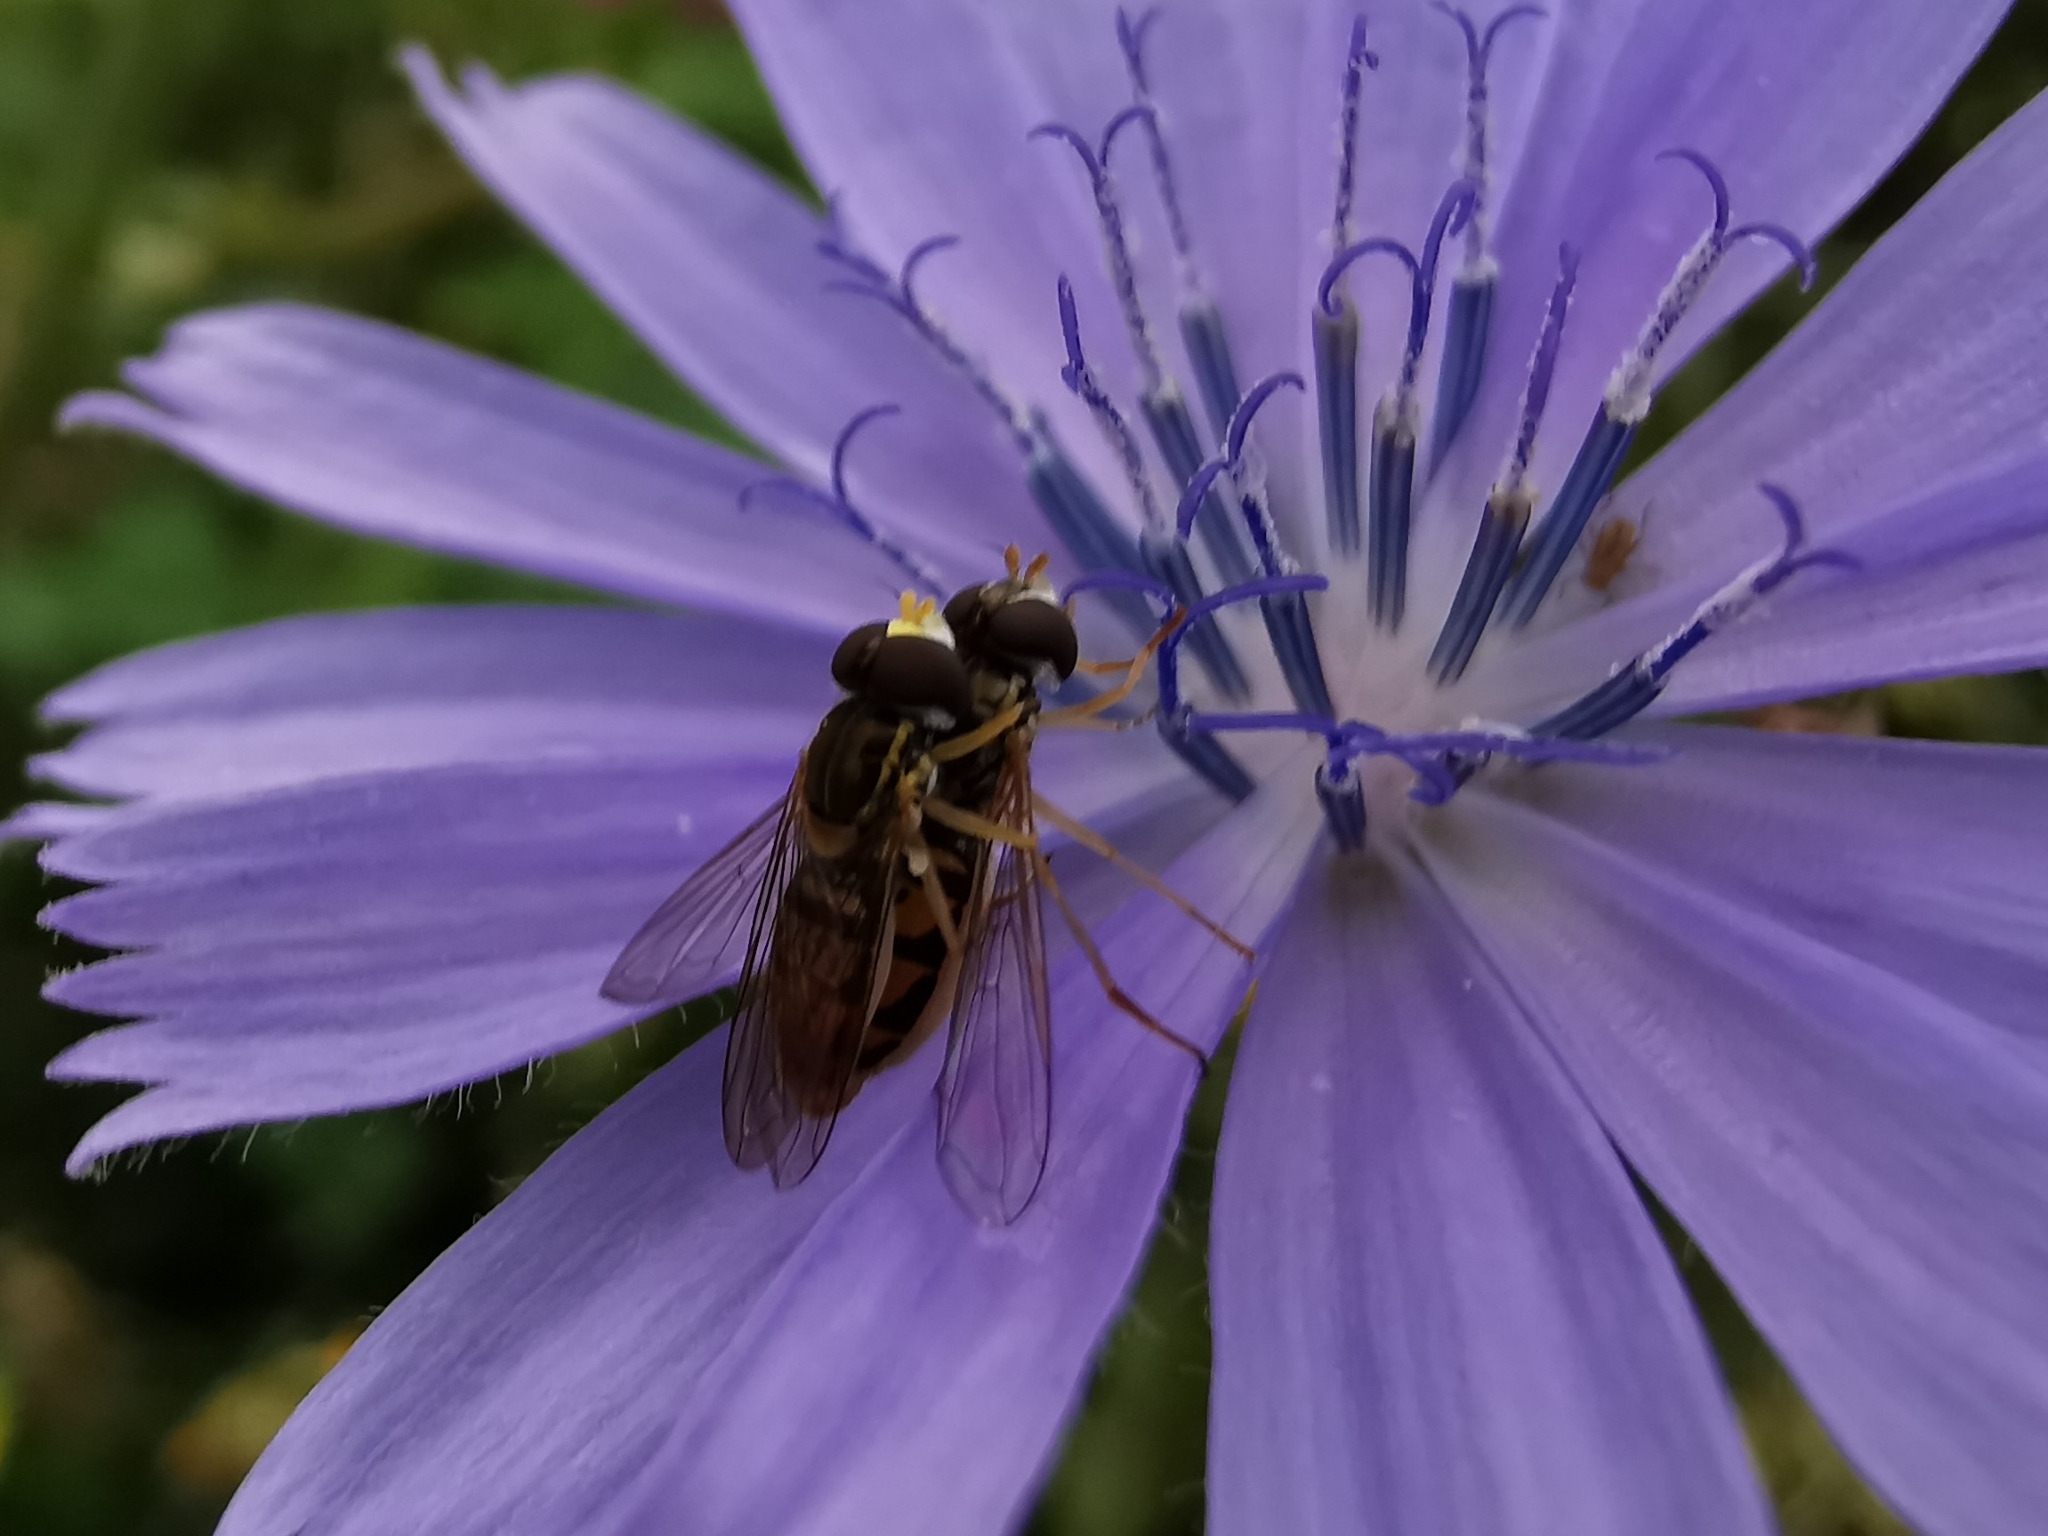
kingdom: Animalia
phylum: Arthropoda
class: Insecta
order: Diptera
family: Syrphidae
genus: Toxomerus
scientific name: Toxomerus marginatus
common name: Syrphid fly
